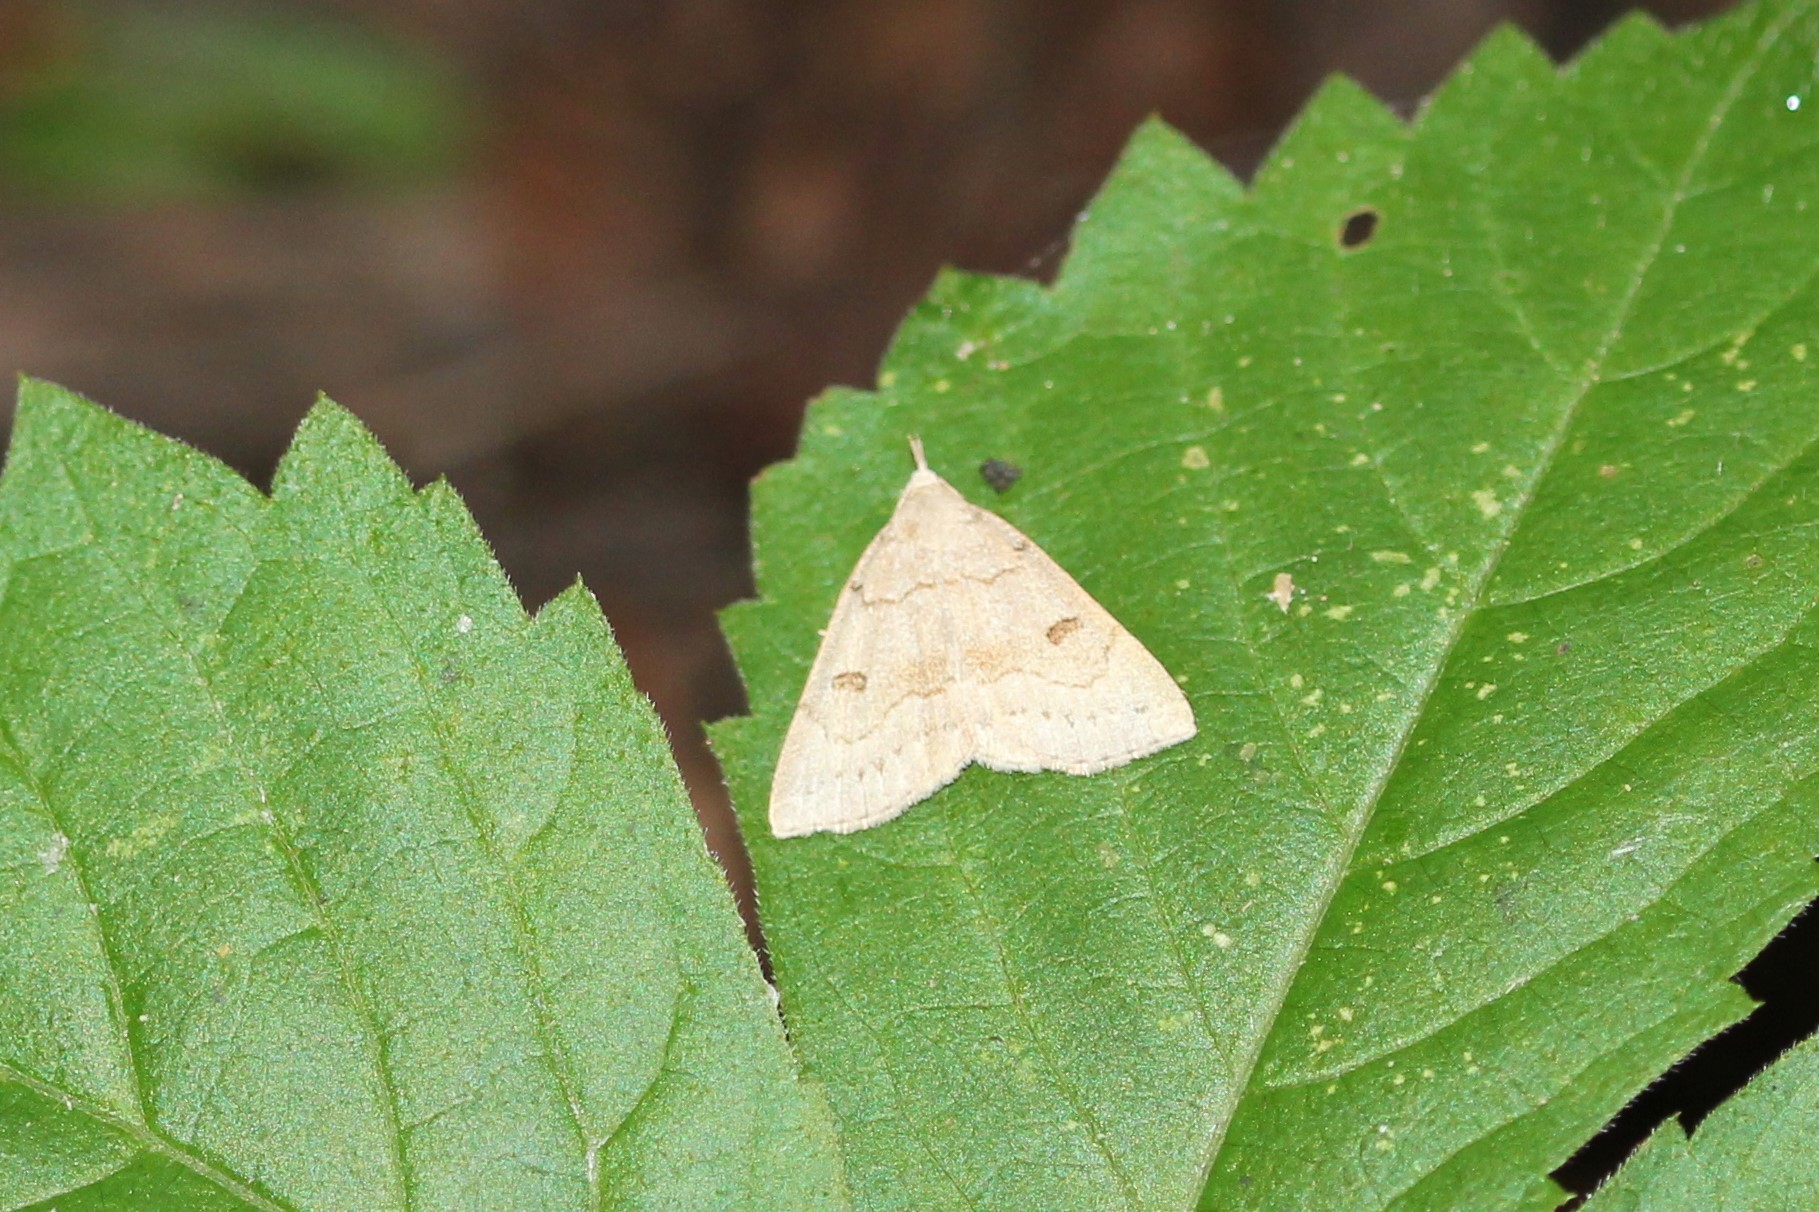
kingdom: Animalia
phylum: Arthropoda
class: Insecta
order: Lepidoptera
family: Erebidae
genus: Macrochilo
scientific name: Macrochilo morbidalis
